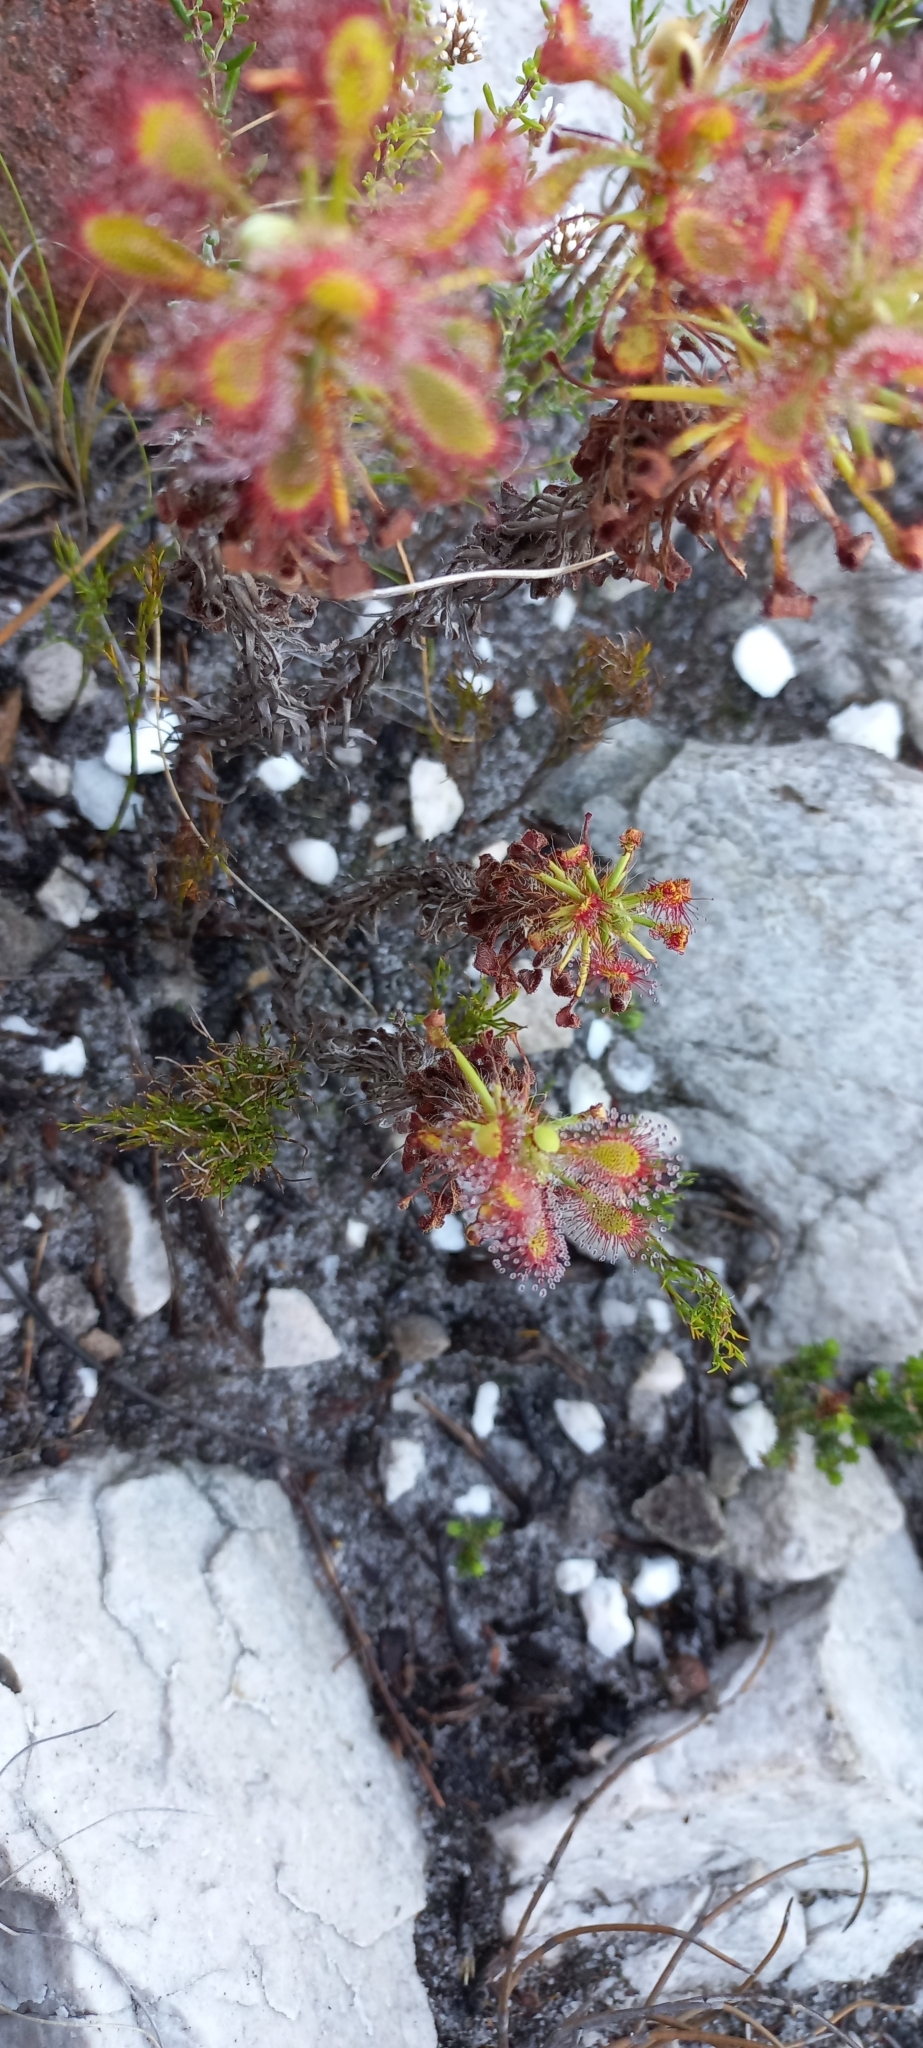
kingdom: Plantae
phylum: Tracheophyta
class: Magnoliopsida
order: Caryophyllales
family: Droseraceae
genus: Drosera
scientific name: Drosera glabripes
